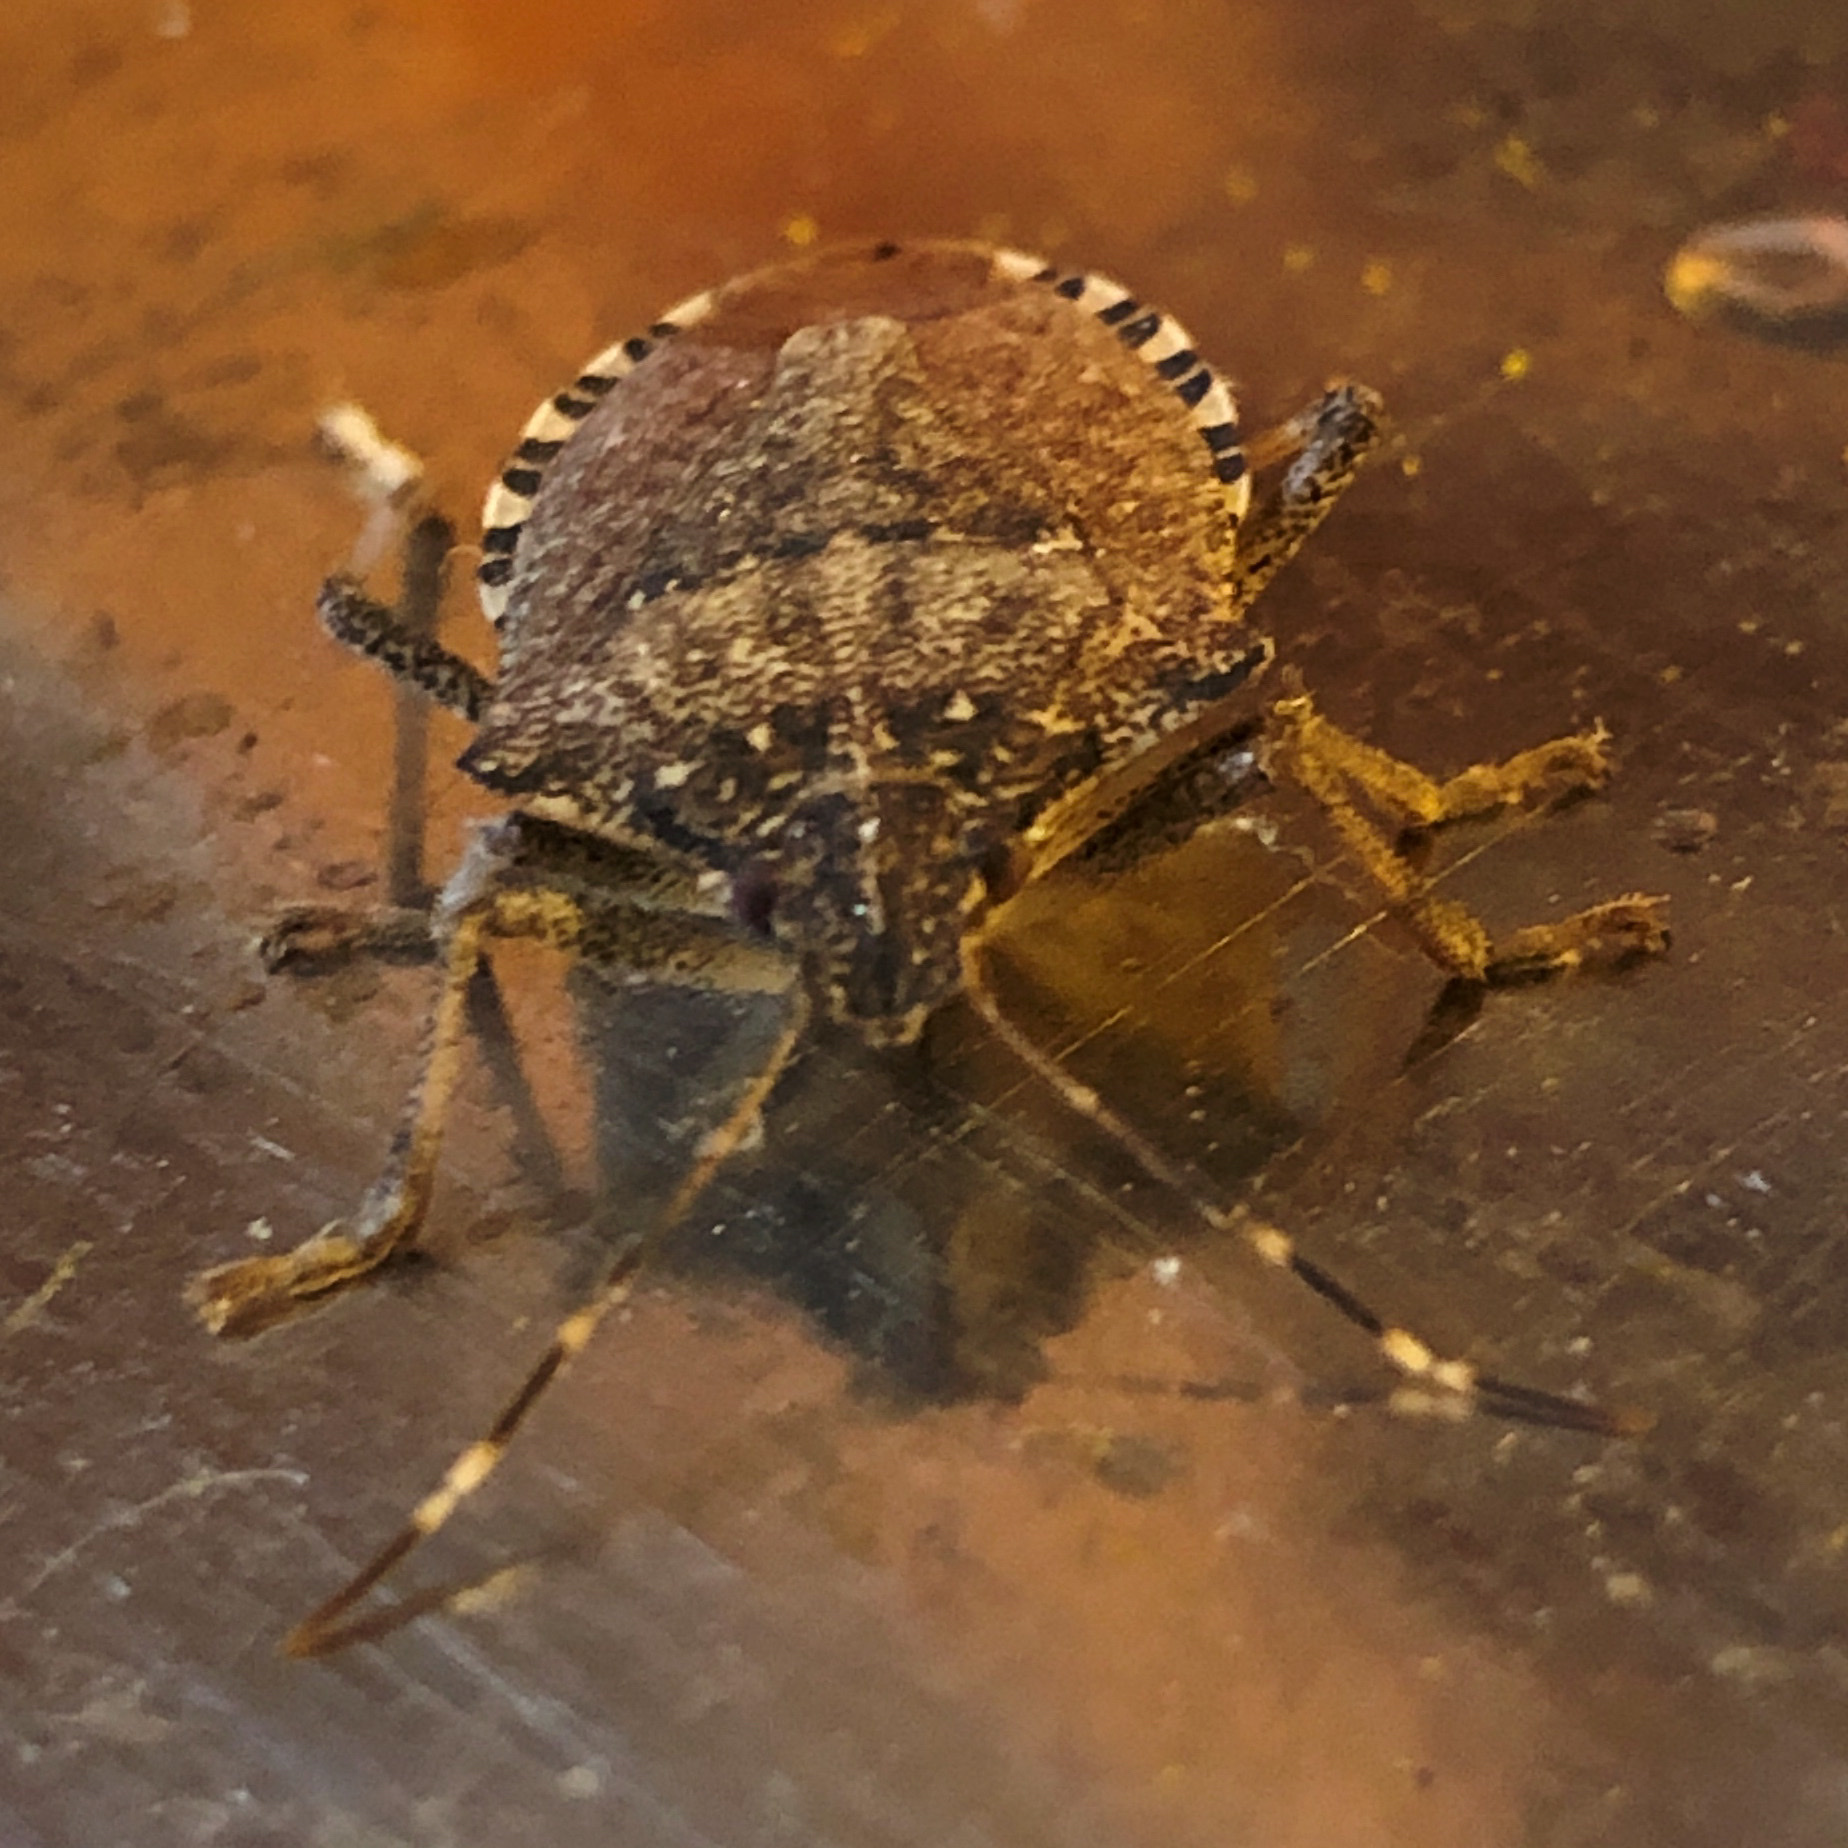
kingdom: Animalia
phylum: Arthropoda
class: Insecta
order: Hemiptera
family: Pentatomidae
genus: Halyomorpha
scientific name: Halyomorpha halys
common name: Brown marmorated stink bug
